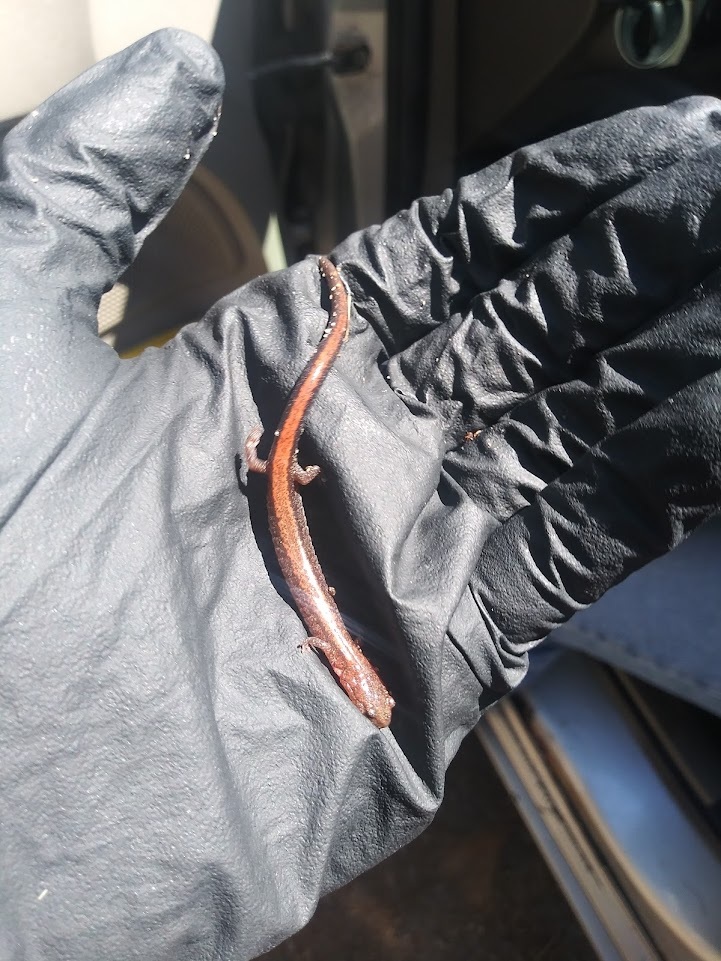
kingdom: Animalia
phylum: Chordata
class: Amphibia
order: Caudata
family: Plethodontidae
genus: Plethodon
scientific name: Plethodon cinereus
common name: Redback salamander
